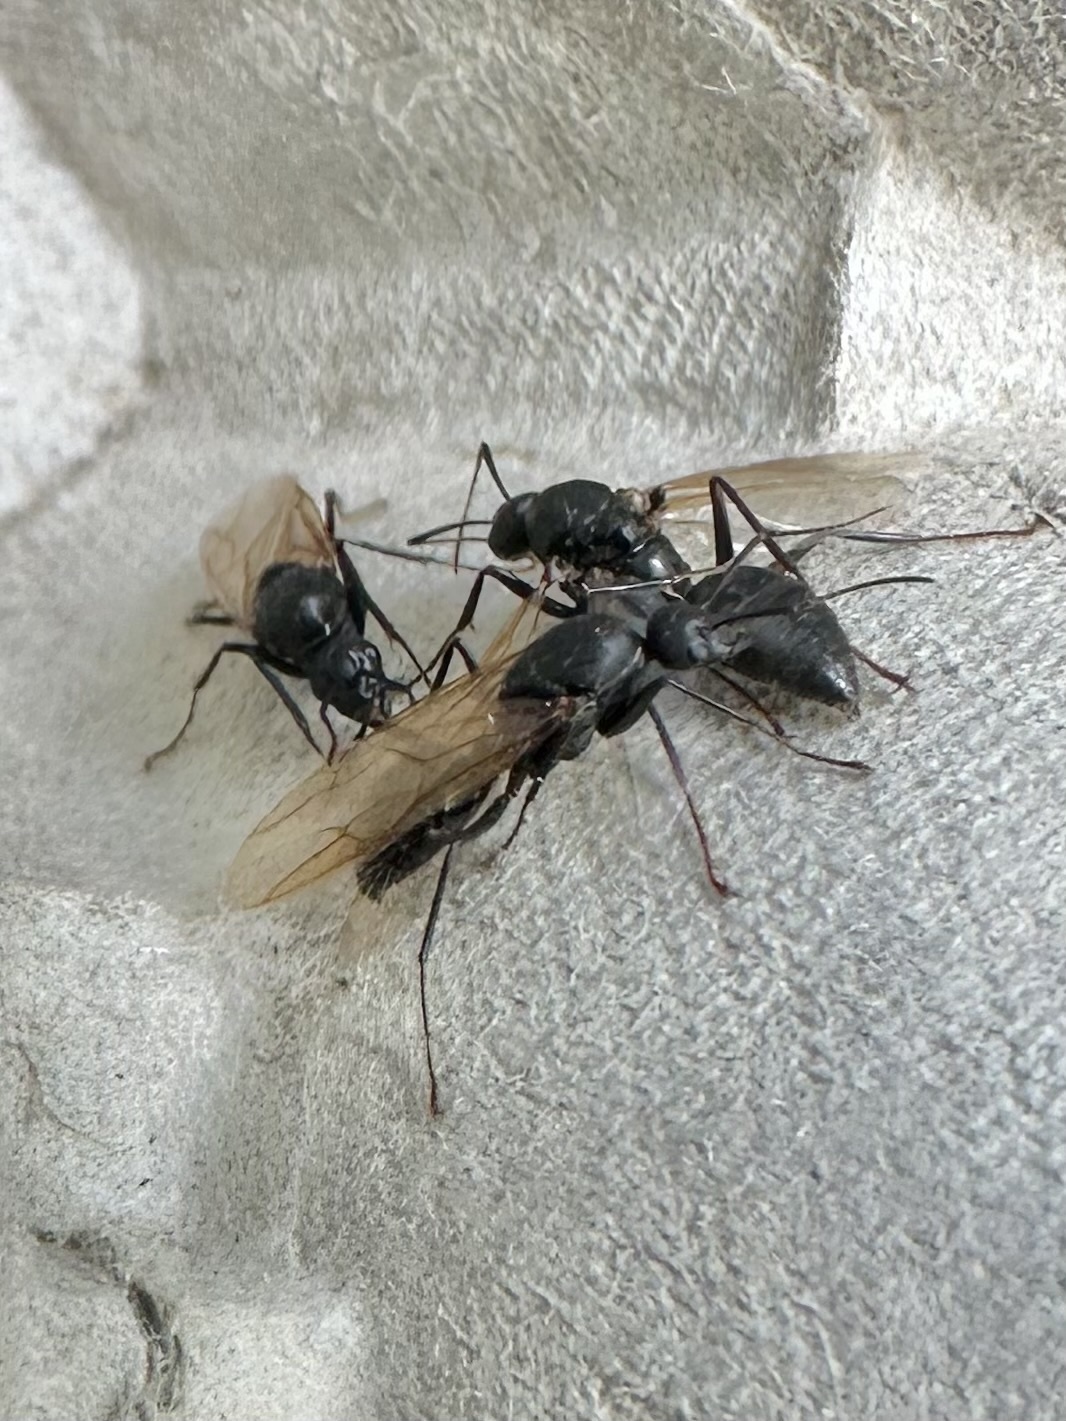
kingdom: Animalia
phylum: Arthropoda
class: Insecta
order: Hymenoptera
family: Formicidae
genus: Camponotus
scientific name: Camponotus pennsylvanicus
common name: Black carpenter ant
